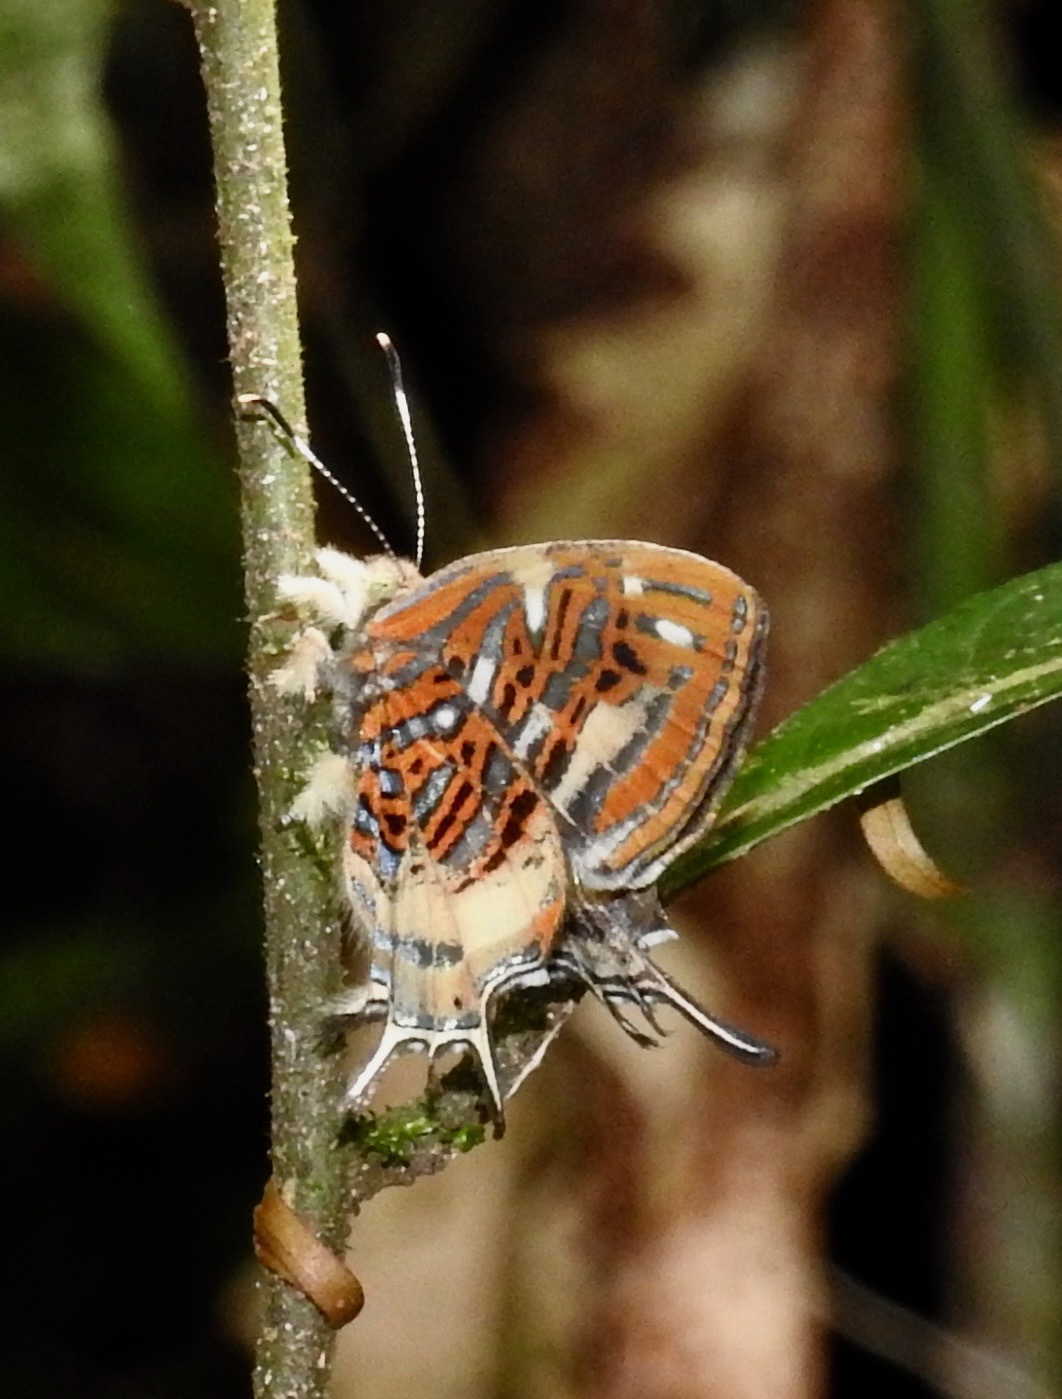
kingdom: Animalia
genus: Charis
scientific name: Charis chrysus
